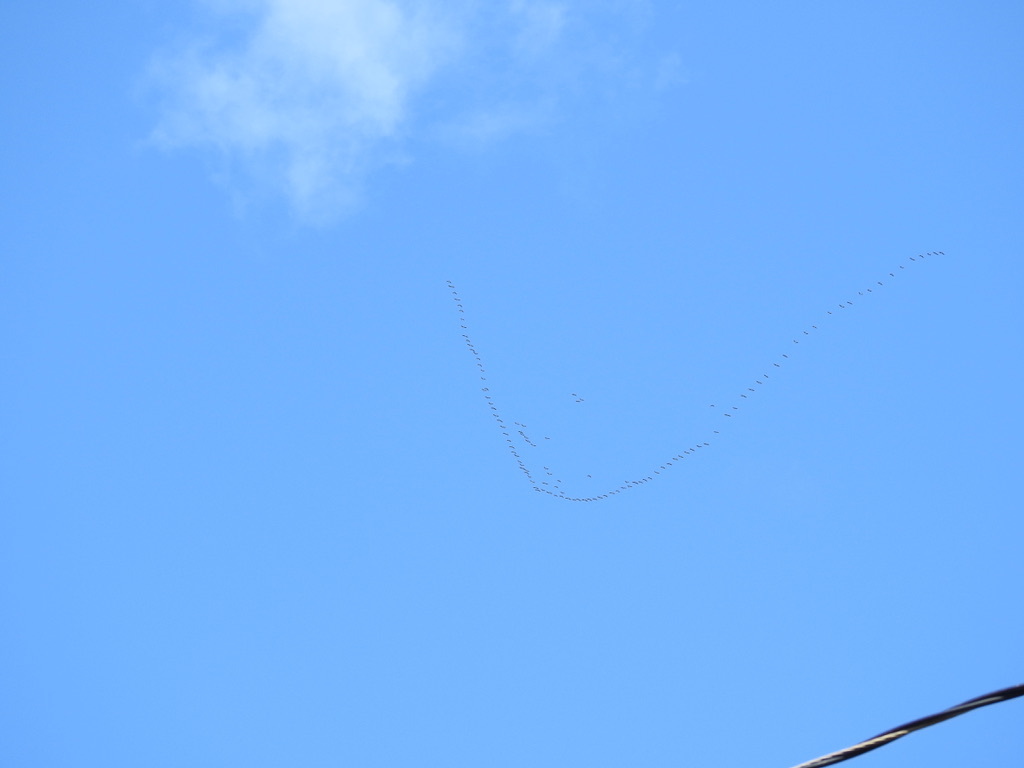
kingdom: Animalia
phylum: Chordata
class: Aves
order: Anseriformes
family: Anatidae
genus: Branta
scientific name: Branta hutchinsii
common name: Cackling goose
